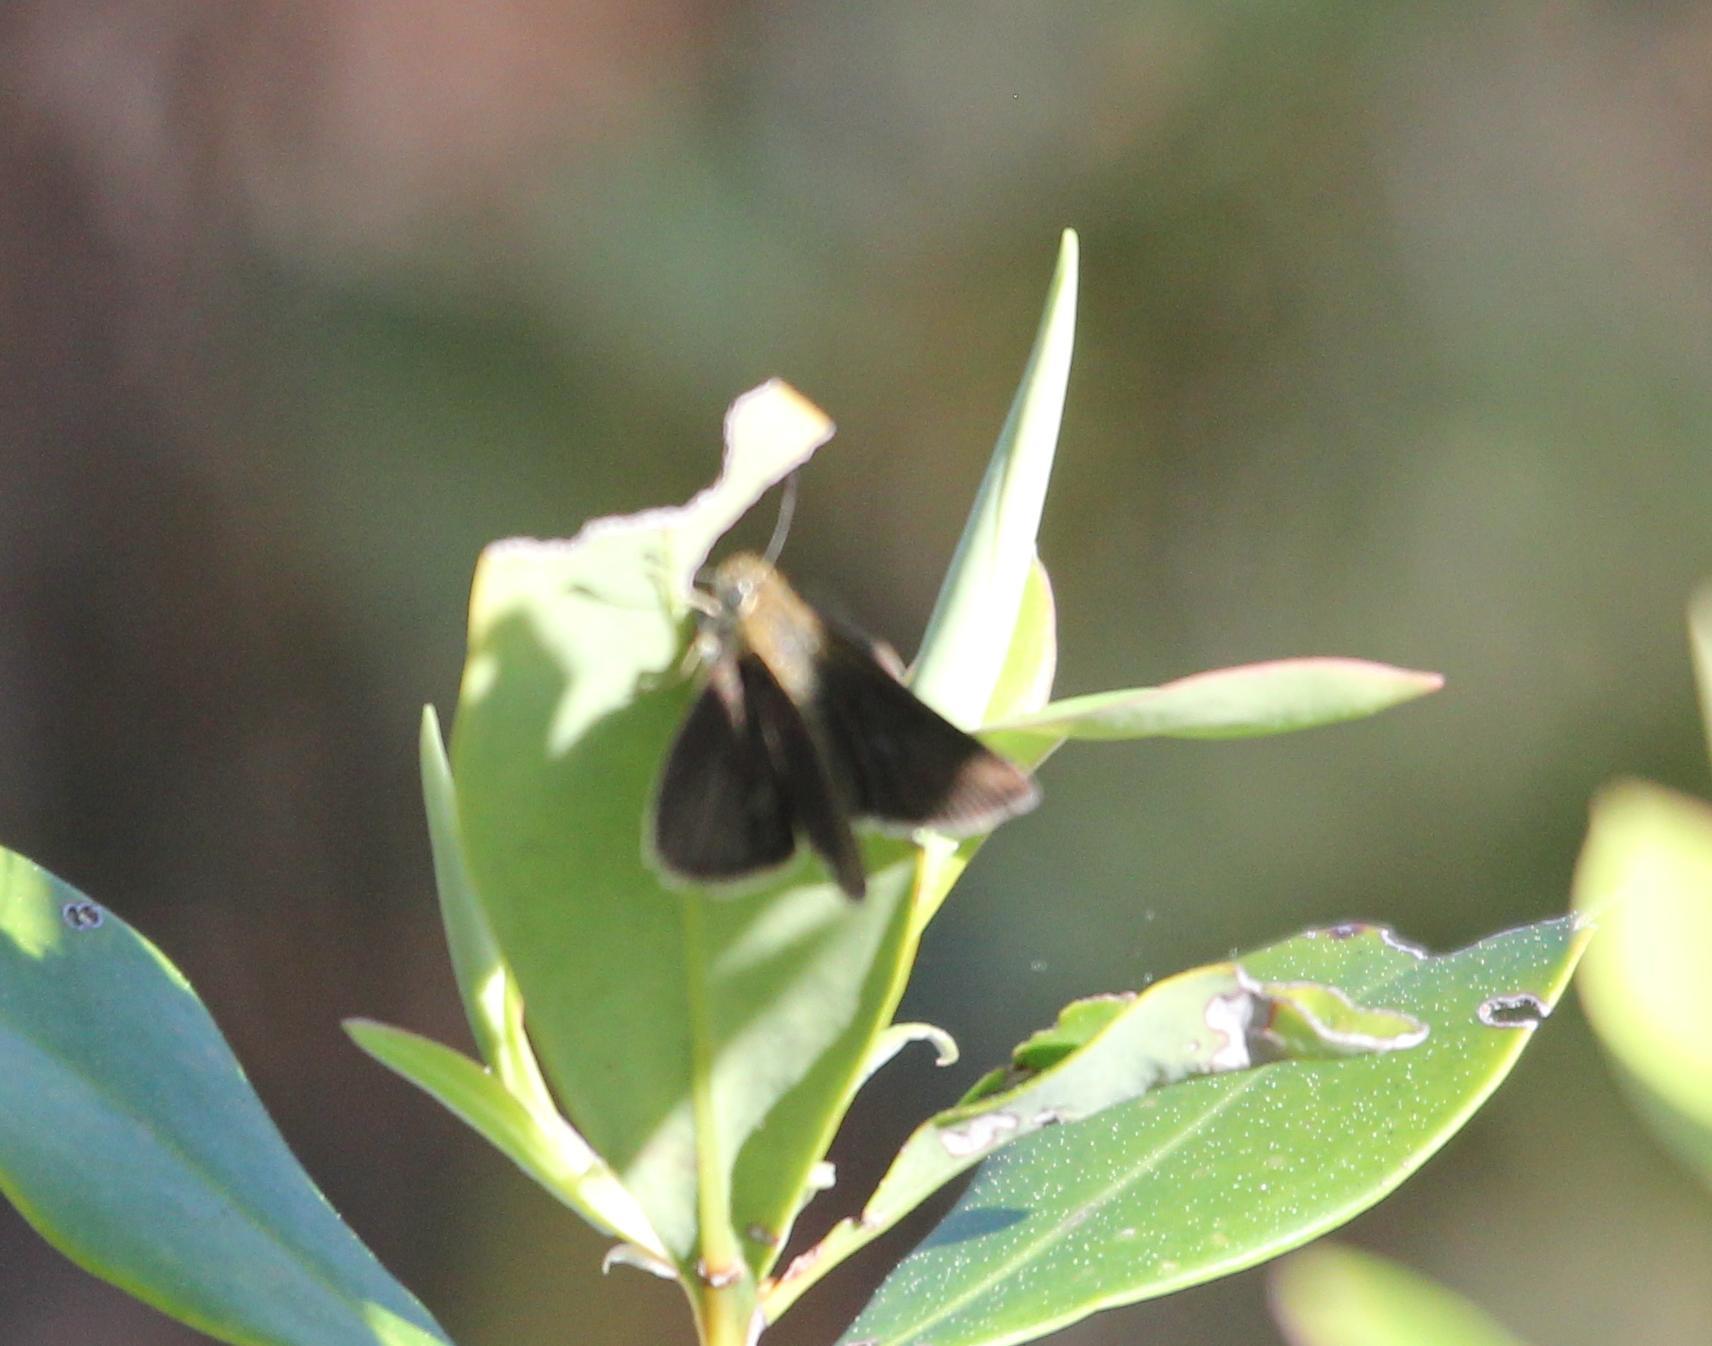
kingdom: Animalia
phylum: Arthropoda
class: Insecta
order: Lepidoptera
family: Hesperiidae
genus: Nastra
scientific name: Nastra lherminier
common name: Swarthy skipper
